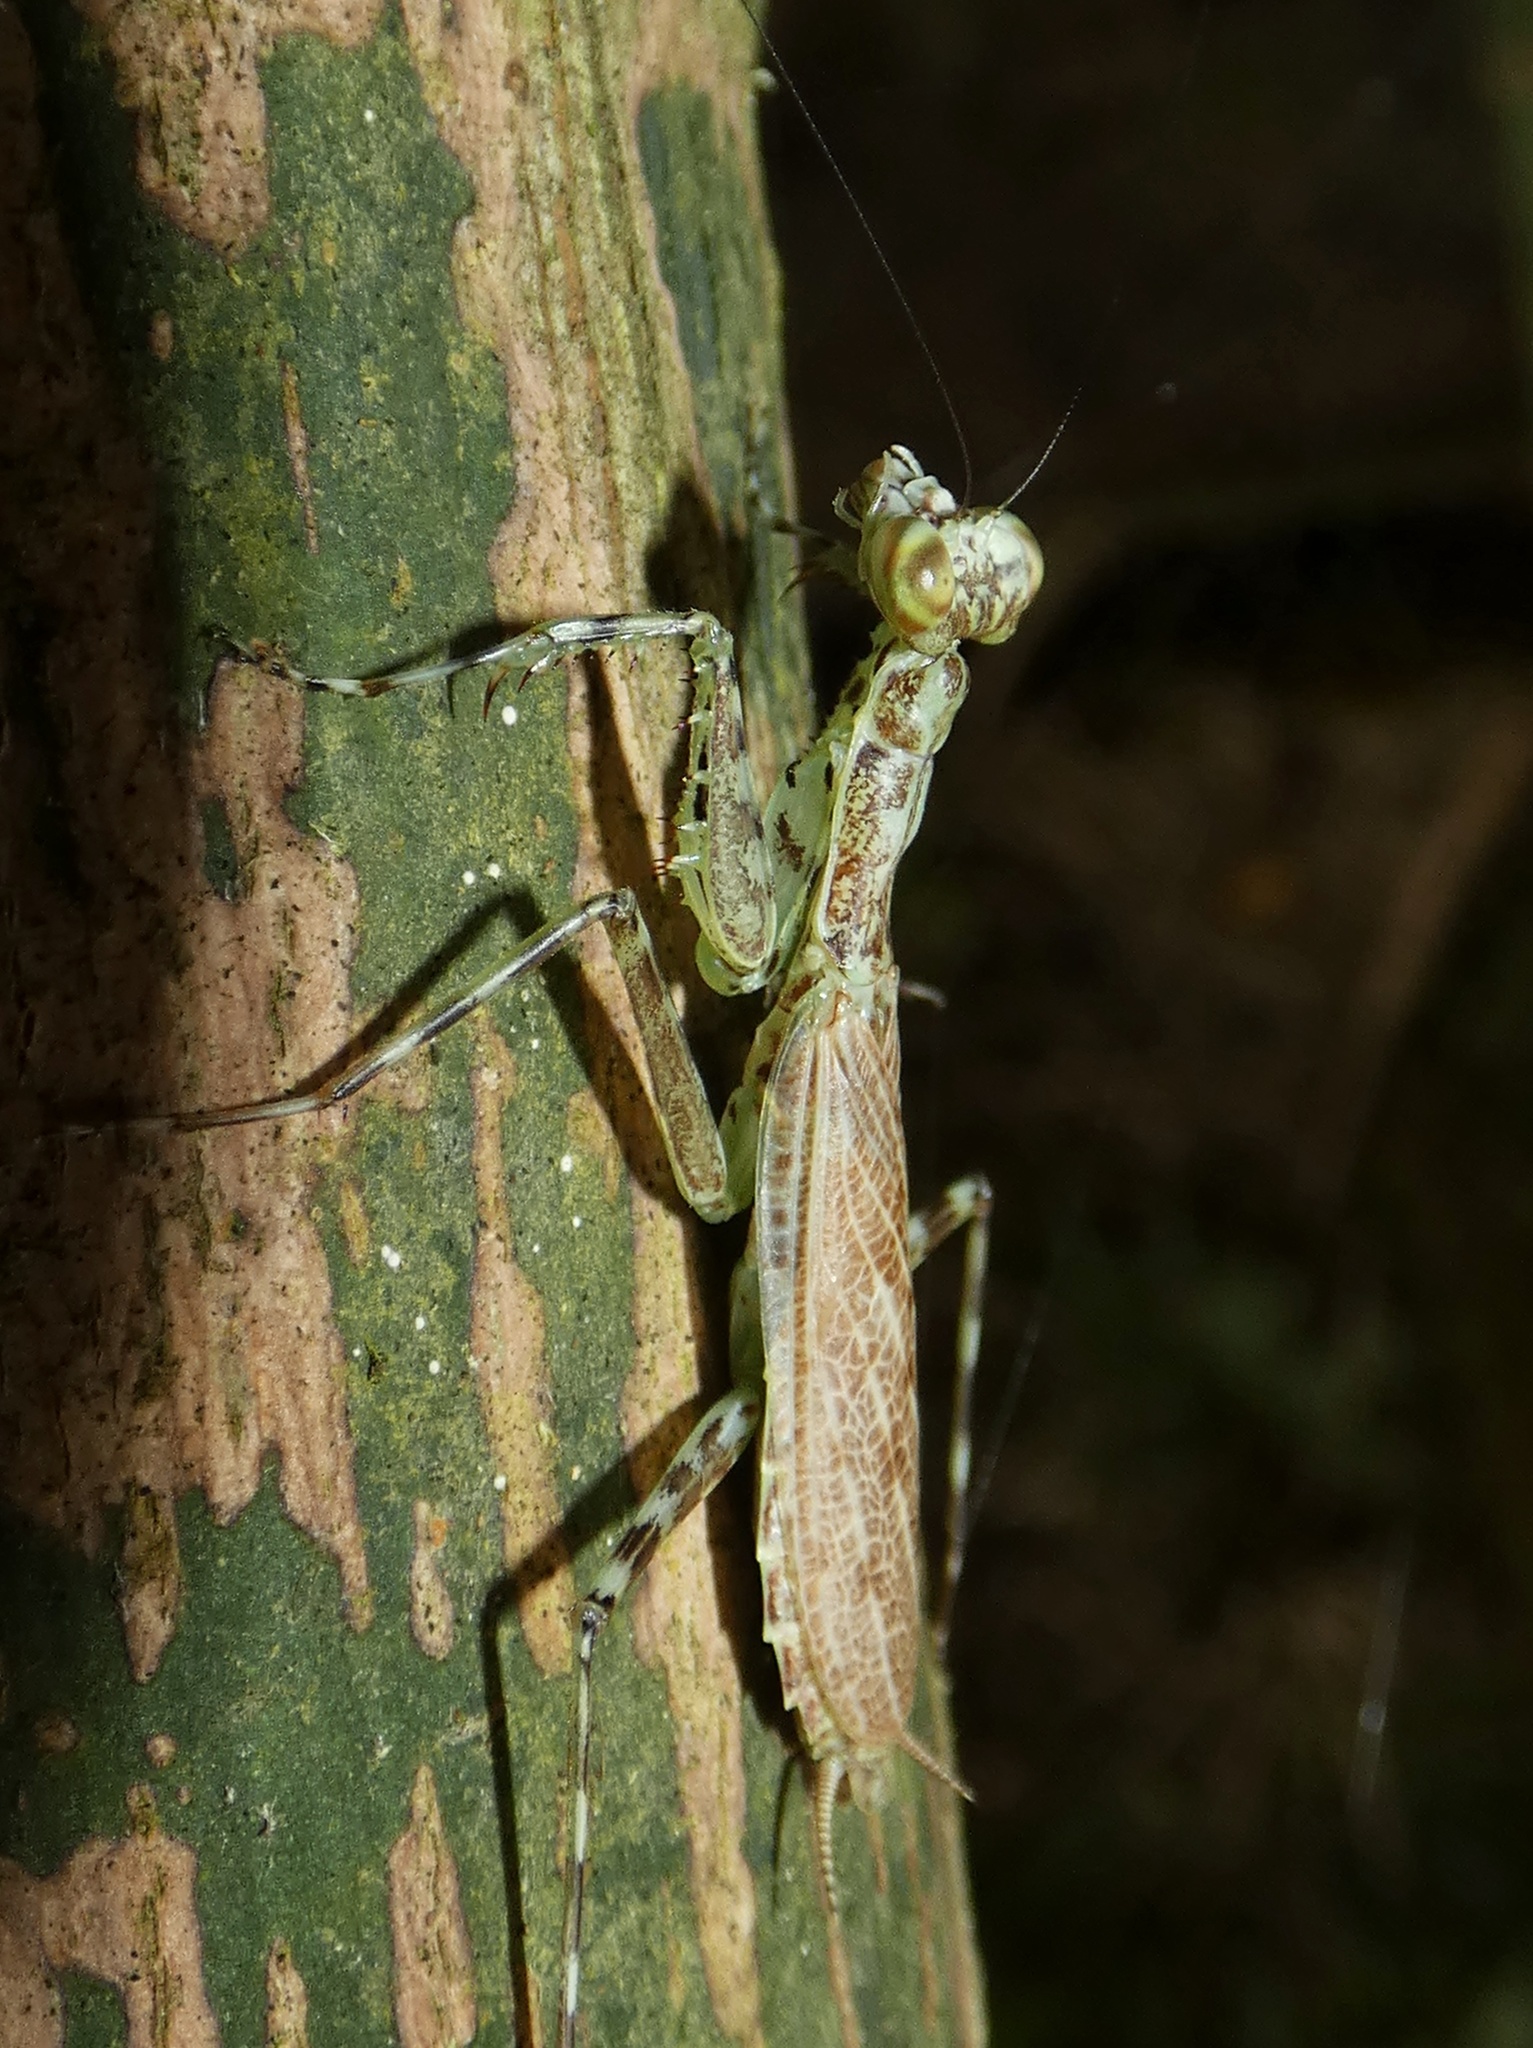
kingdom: Animalia
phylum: Arthropoda
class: Insecta
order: Mantodea
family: Liturgusidae
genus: Liturgusa
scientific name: Liturgusa maya
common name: Mantis
